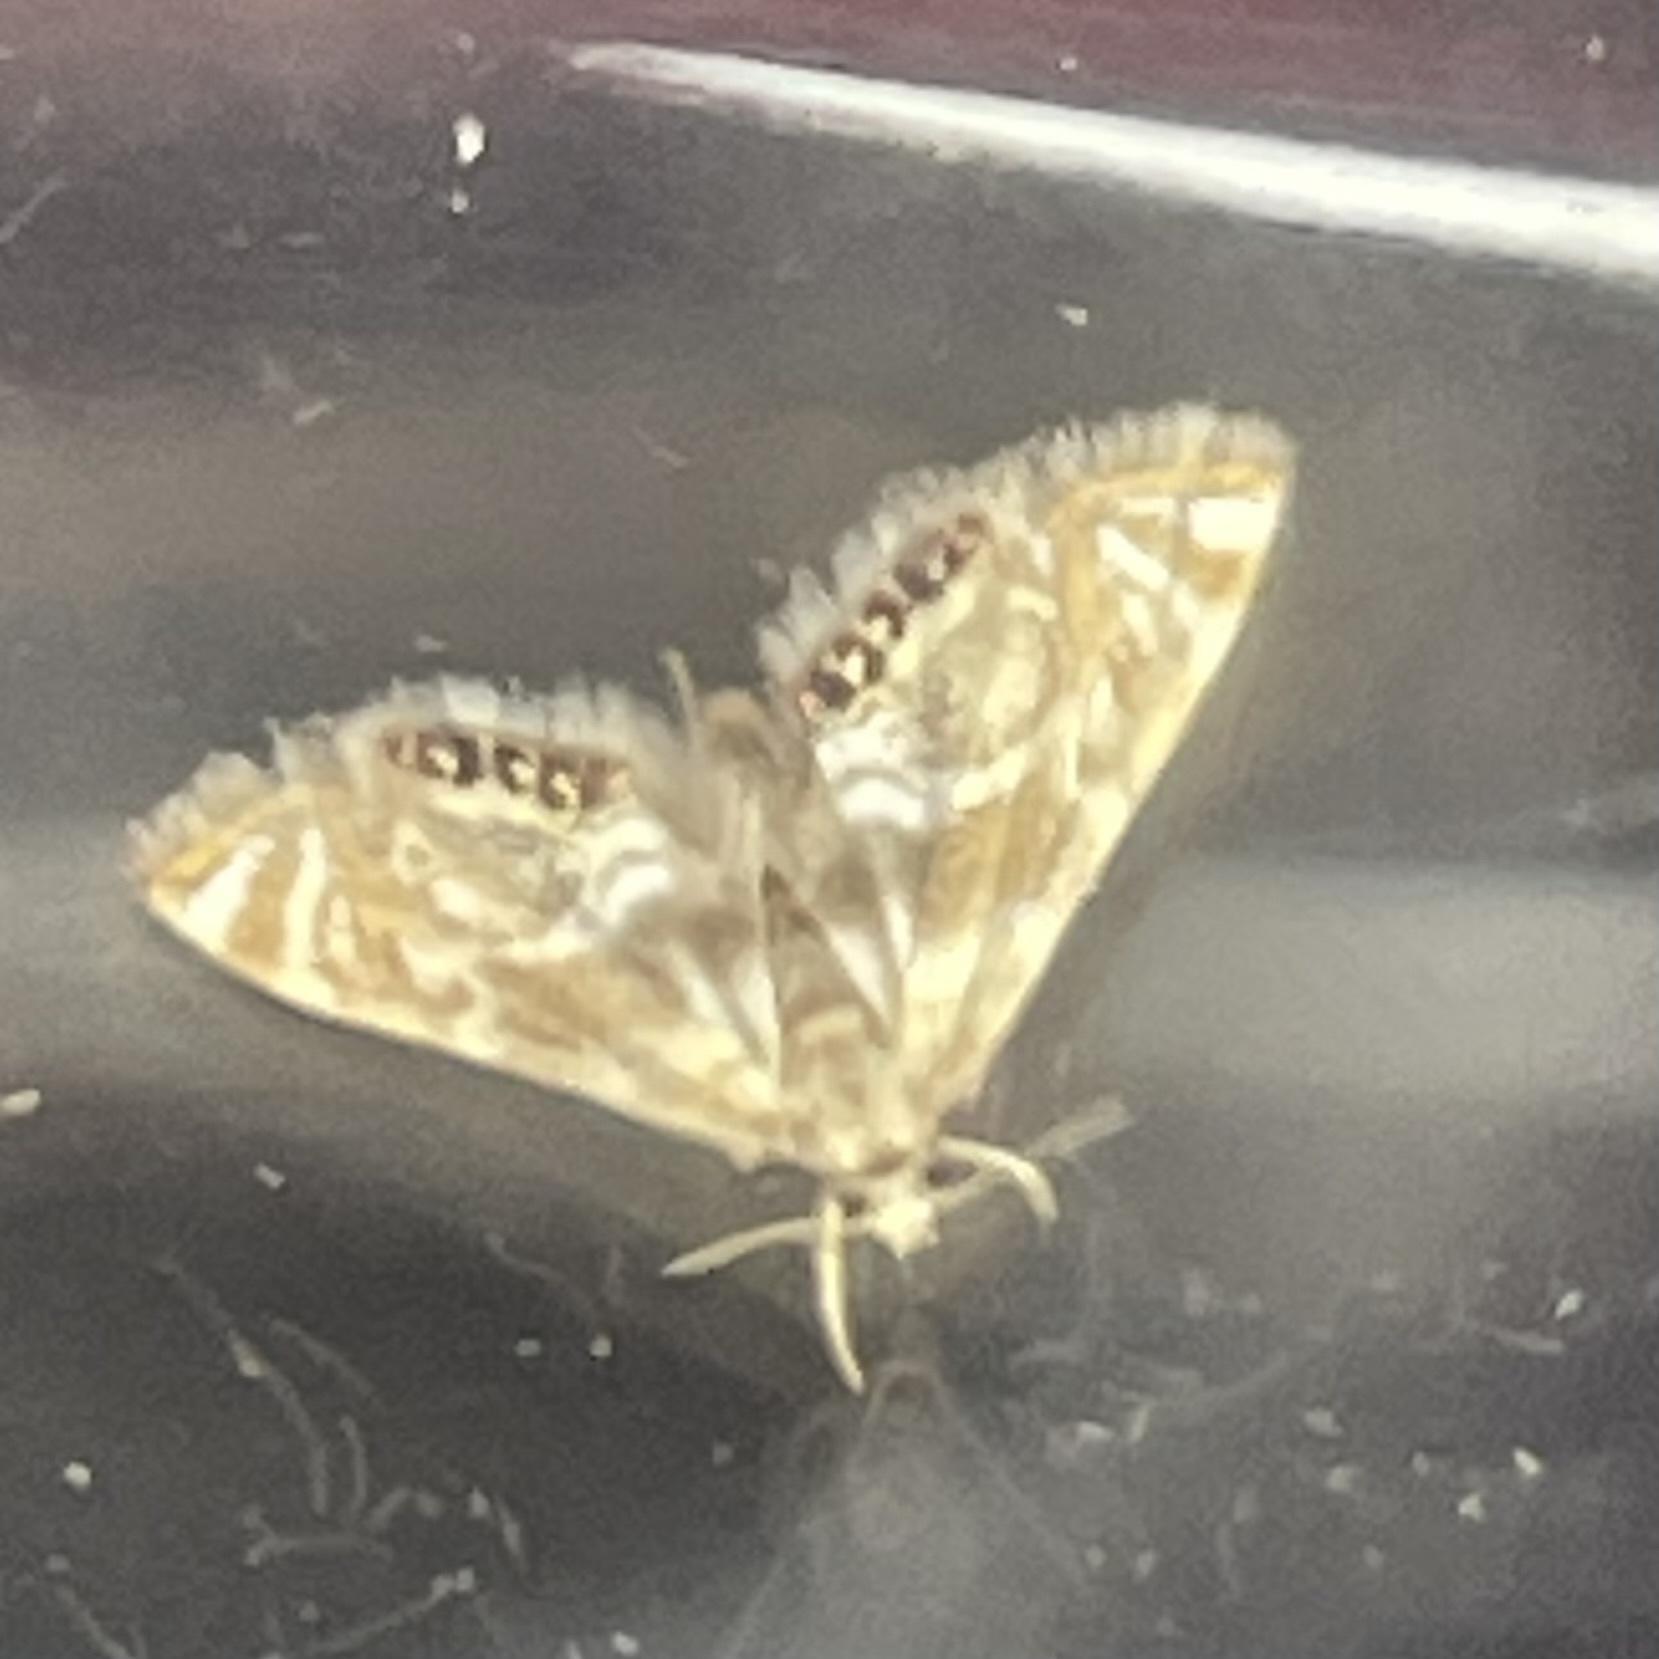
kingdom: Animalia
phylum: Arthropoda
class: Insecta
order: Lepidoptera
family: Crambidae
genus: Petrophila
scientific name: Petrophila canadensis
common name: Canadian petrophila
